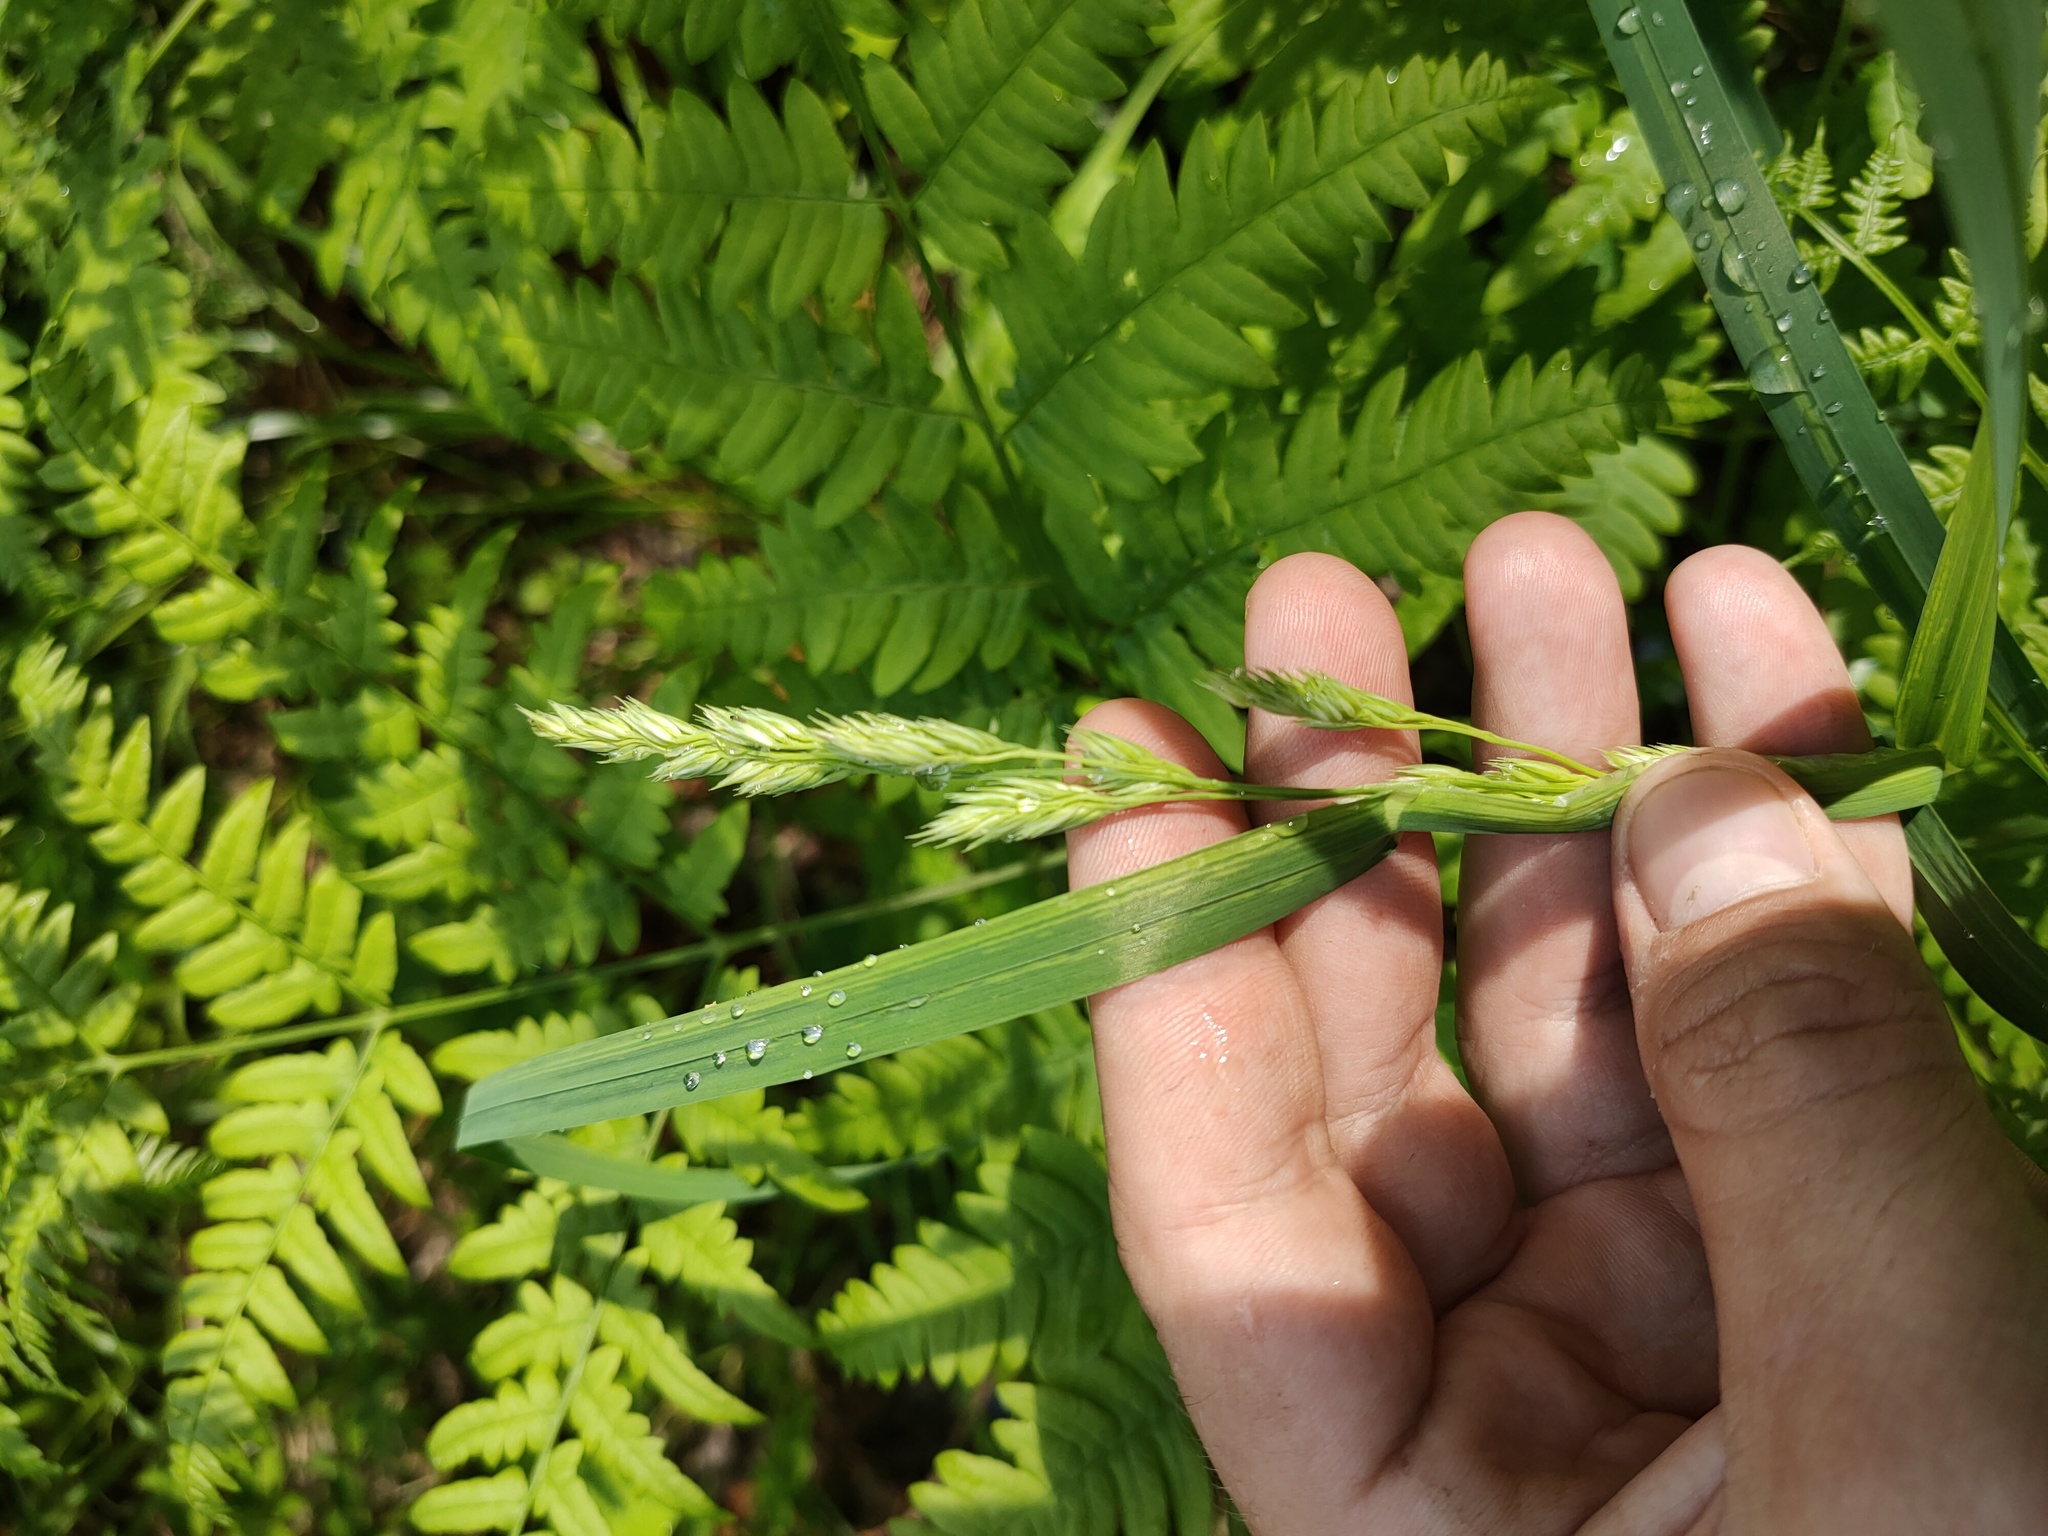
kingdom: Plantae
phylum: Tracheophyta
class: Liliopsida
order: Poales
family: Poaceae
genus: Dactylis
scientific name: Dactylis glomerata
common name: Orchardgrass
